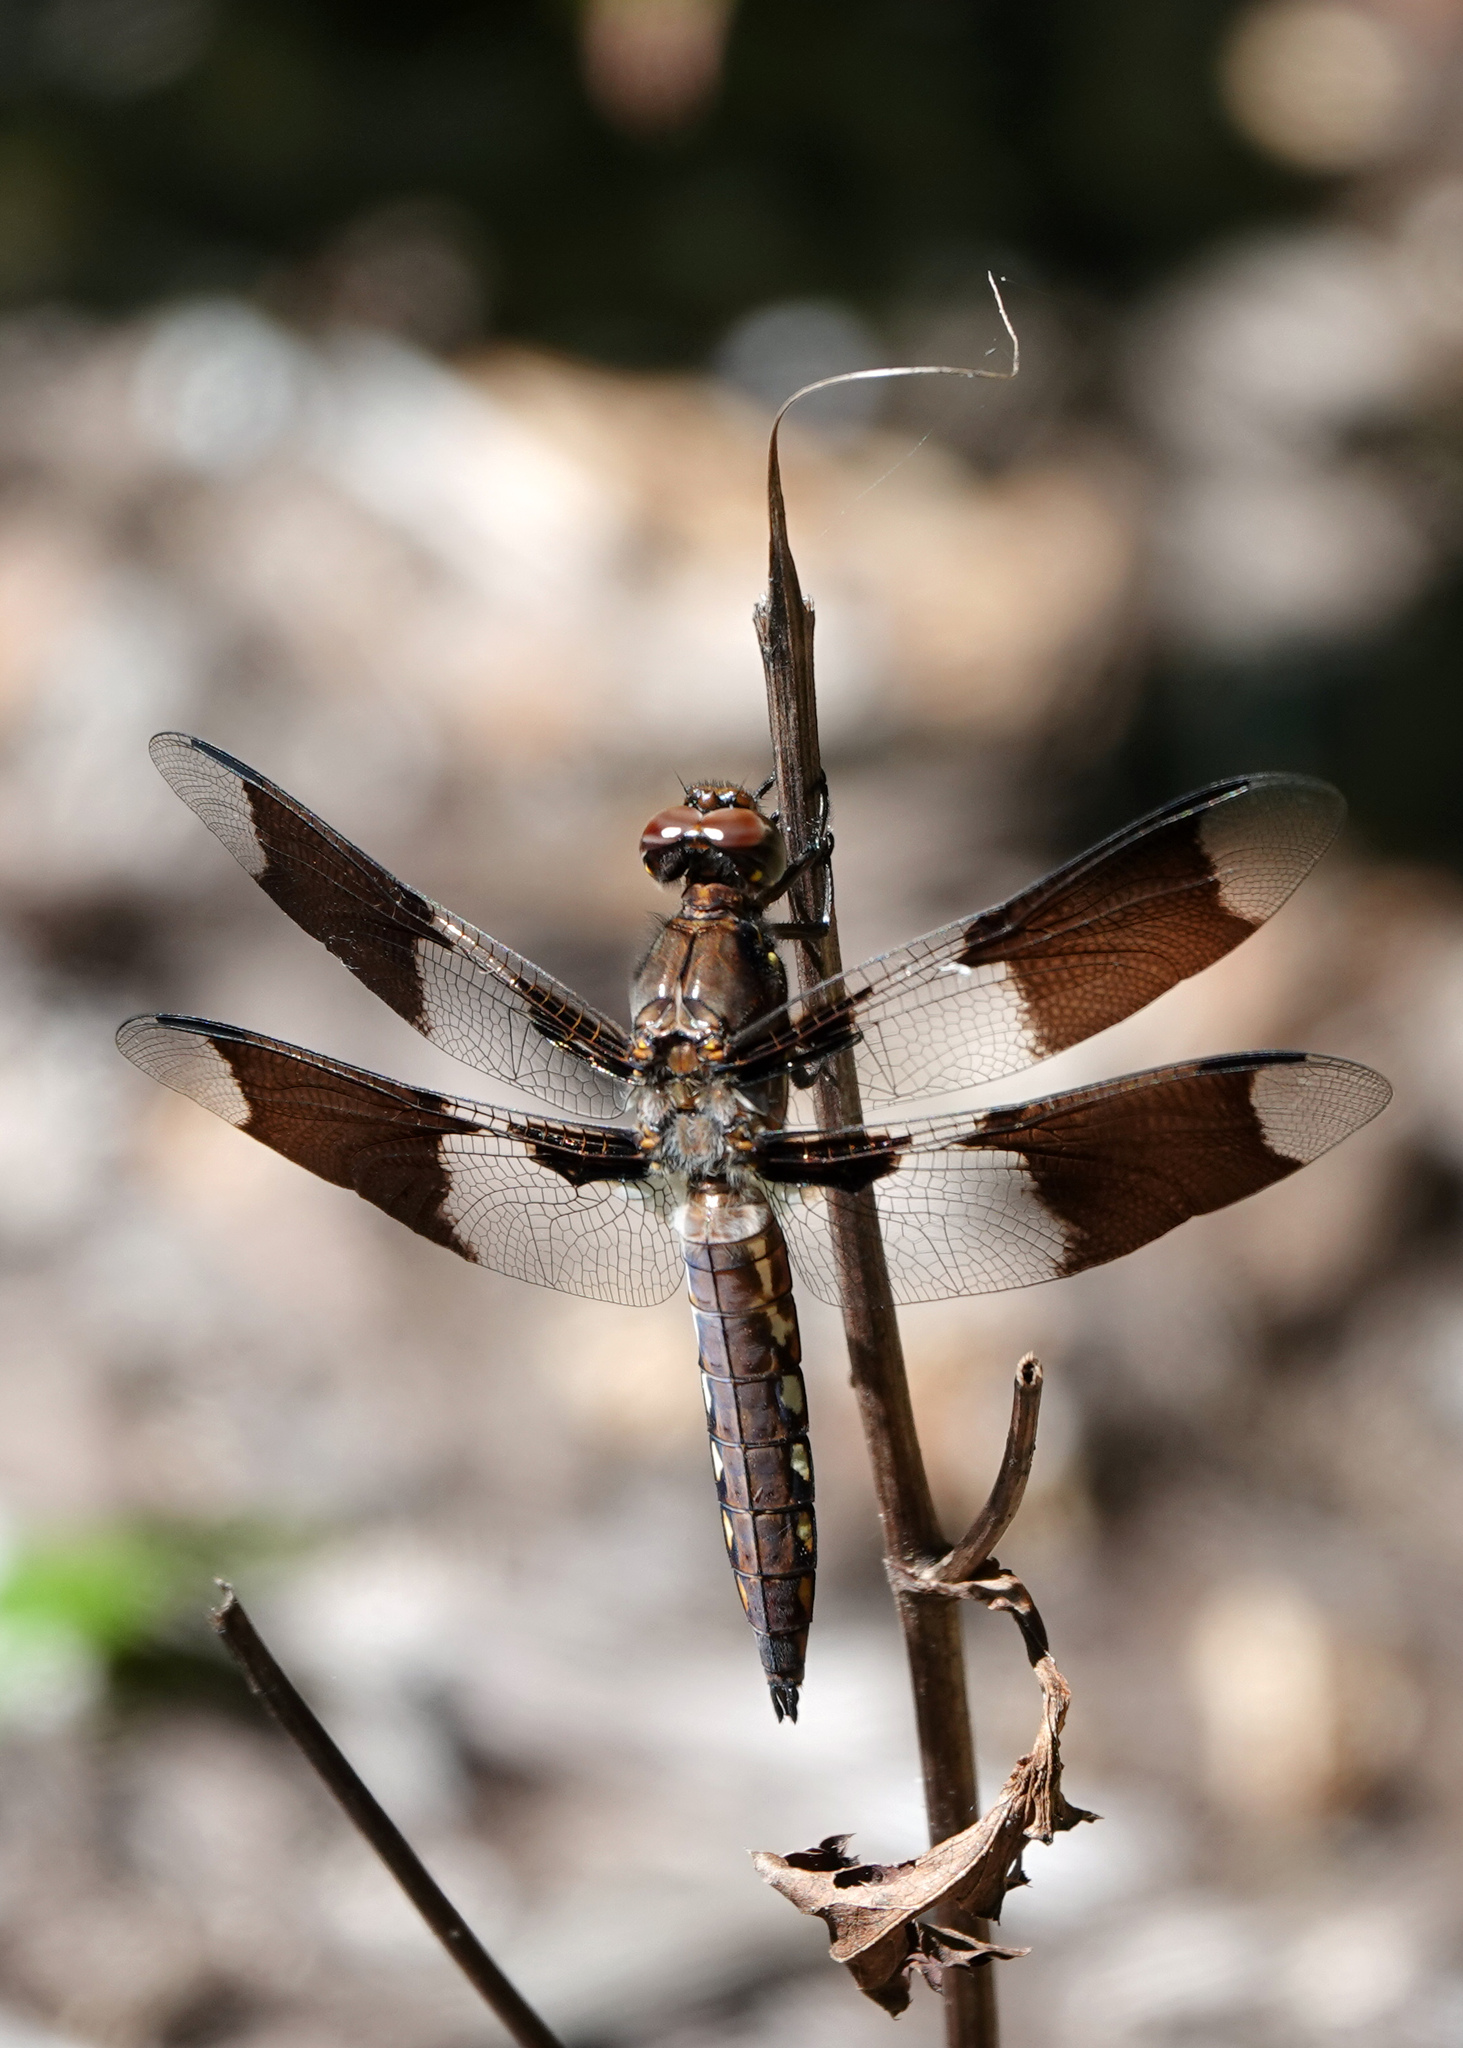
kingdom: Animalia
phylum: Arthropoda
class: Insecta
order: Odonata
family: Libellulidae
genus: Plathemis
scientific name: Plathemis lydia
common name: Common whitetail
